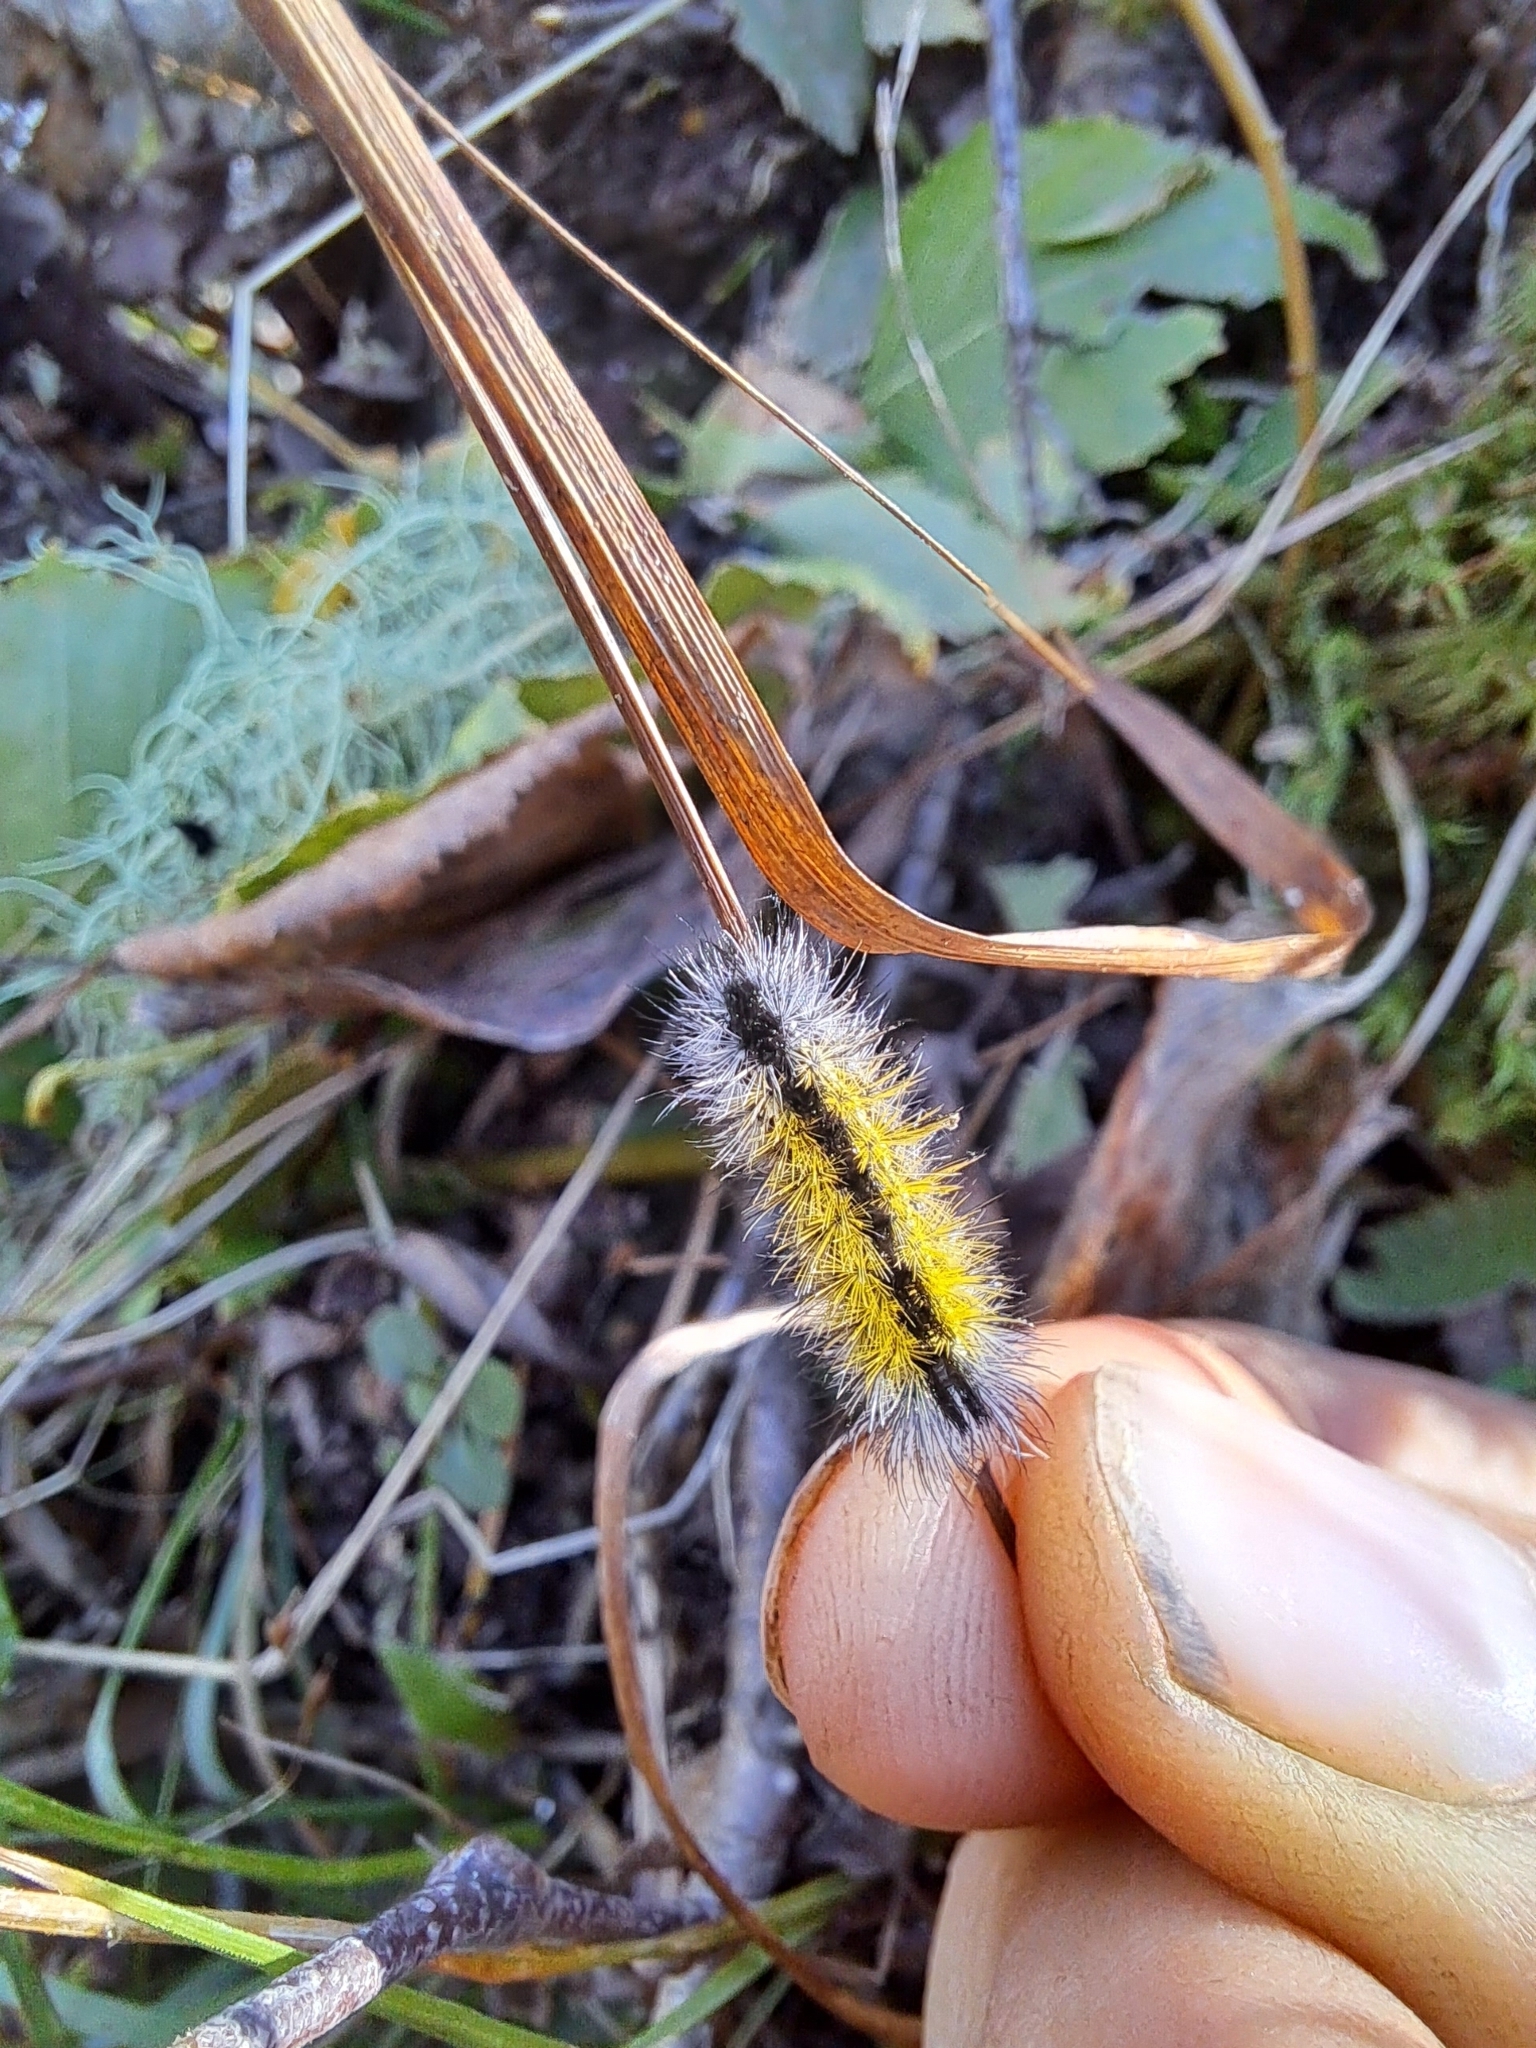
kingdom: Animalia
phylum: Arthropoda
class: Insecta
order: Lepidoptera
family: Erebidae
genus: Ctenucha
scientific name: Ctenucha virginica
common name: Virginia ctenucha moth
